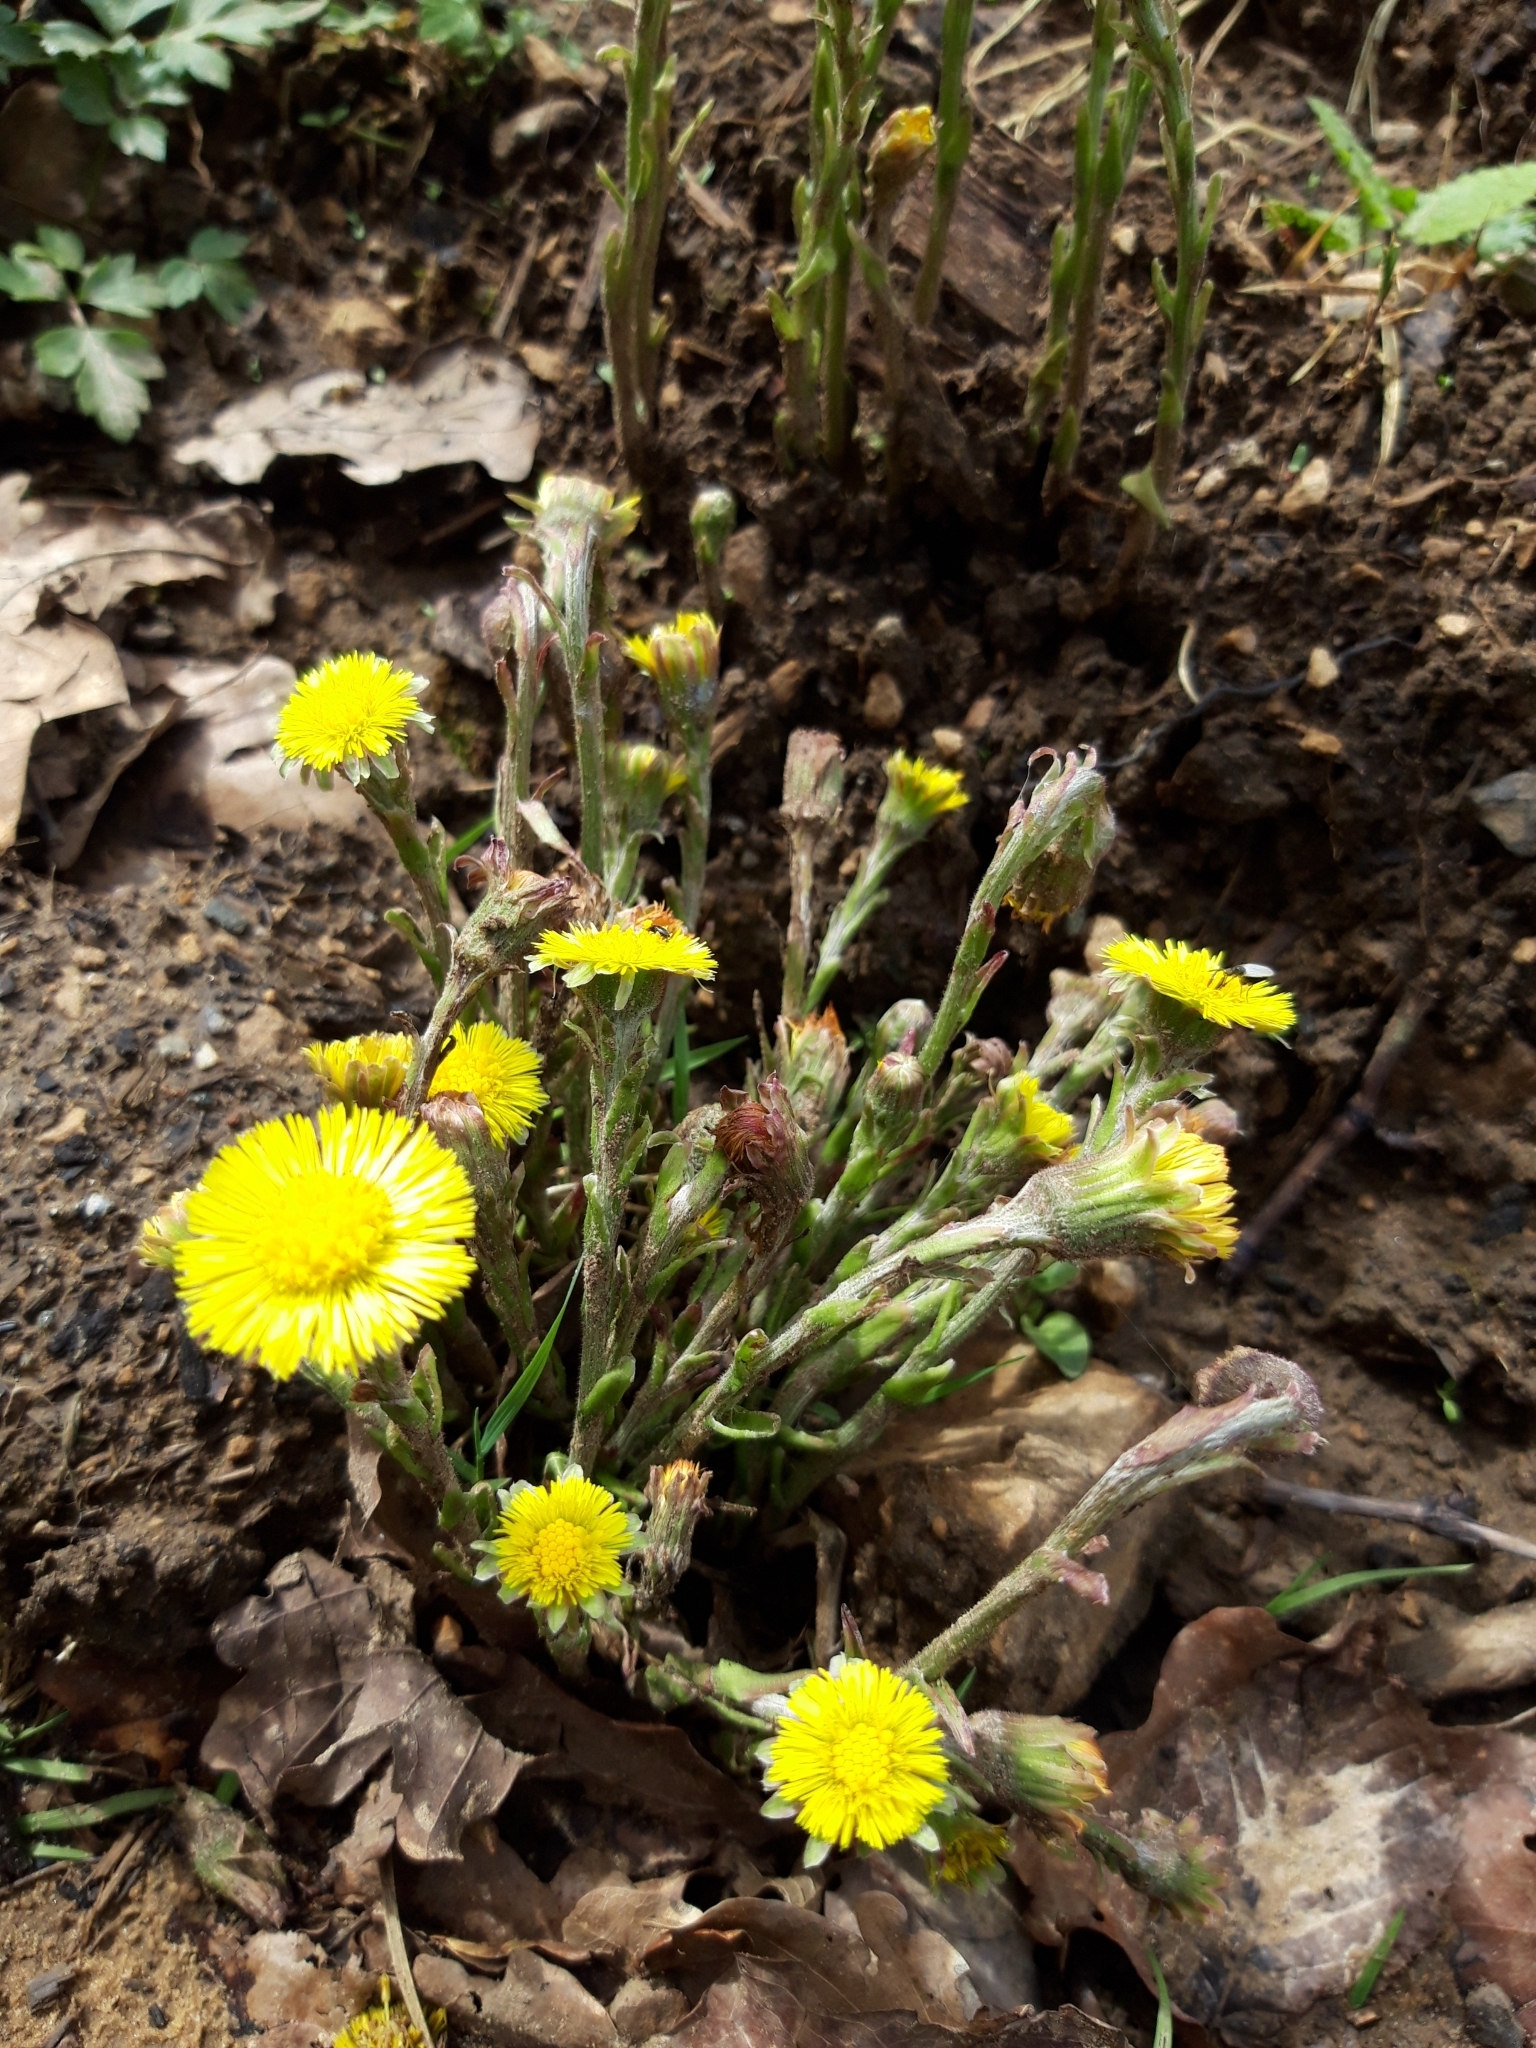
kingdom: Plantae
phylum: Tracheophyta
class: Magnoliopsida
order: Asterales
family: Asteraceae
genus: Tussilago
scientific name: Tussilago farfara
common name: Coltsfoot
